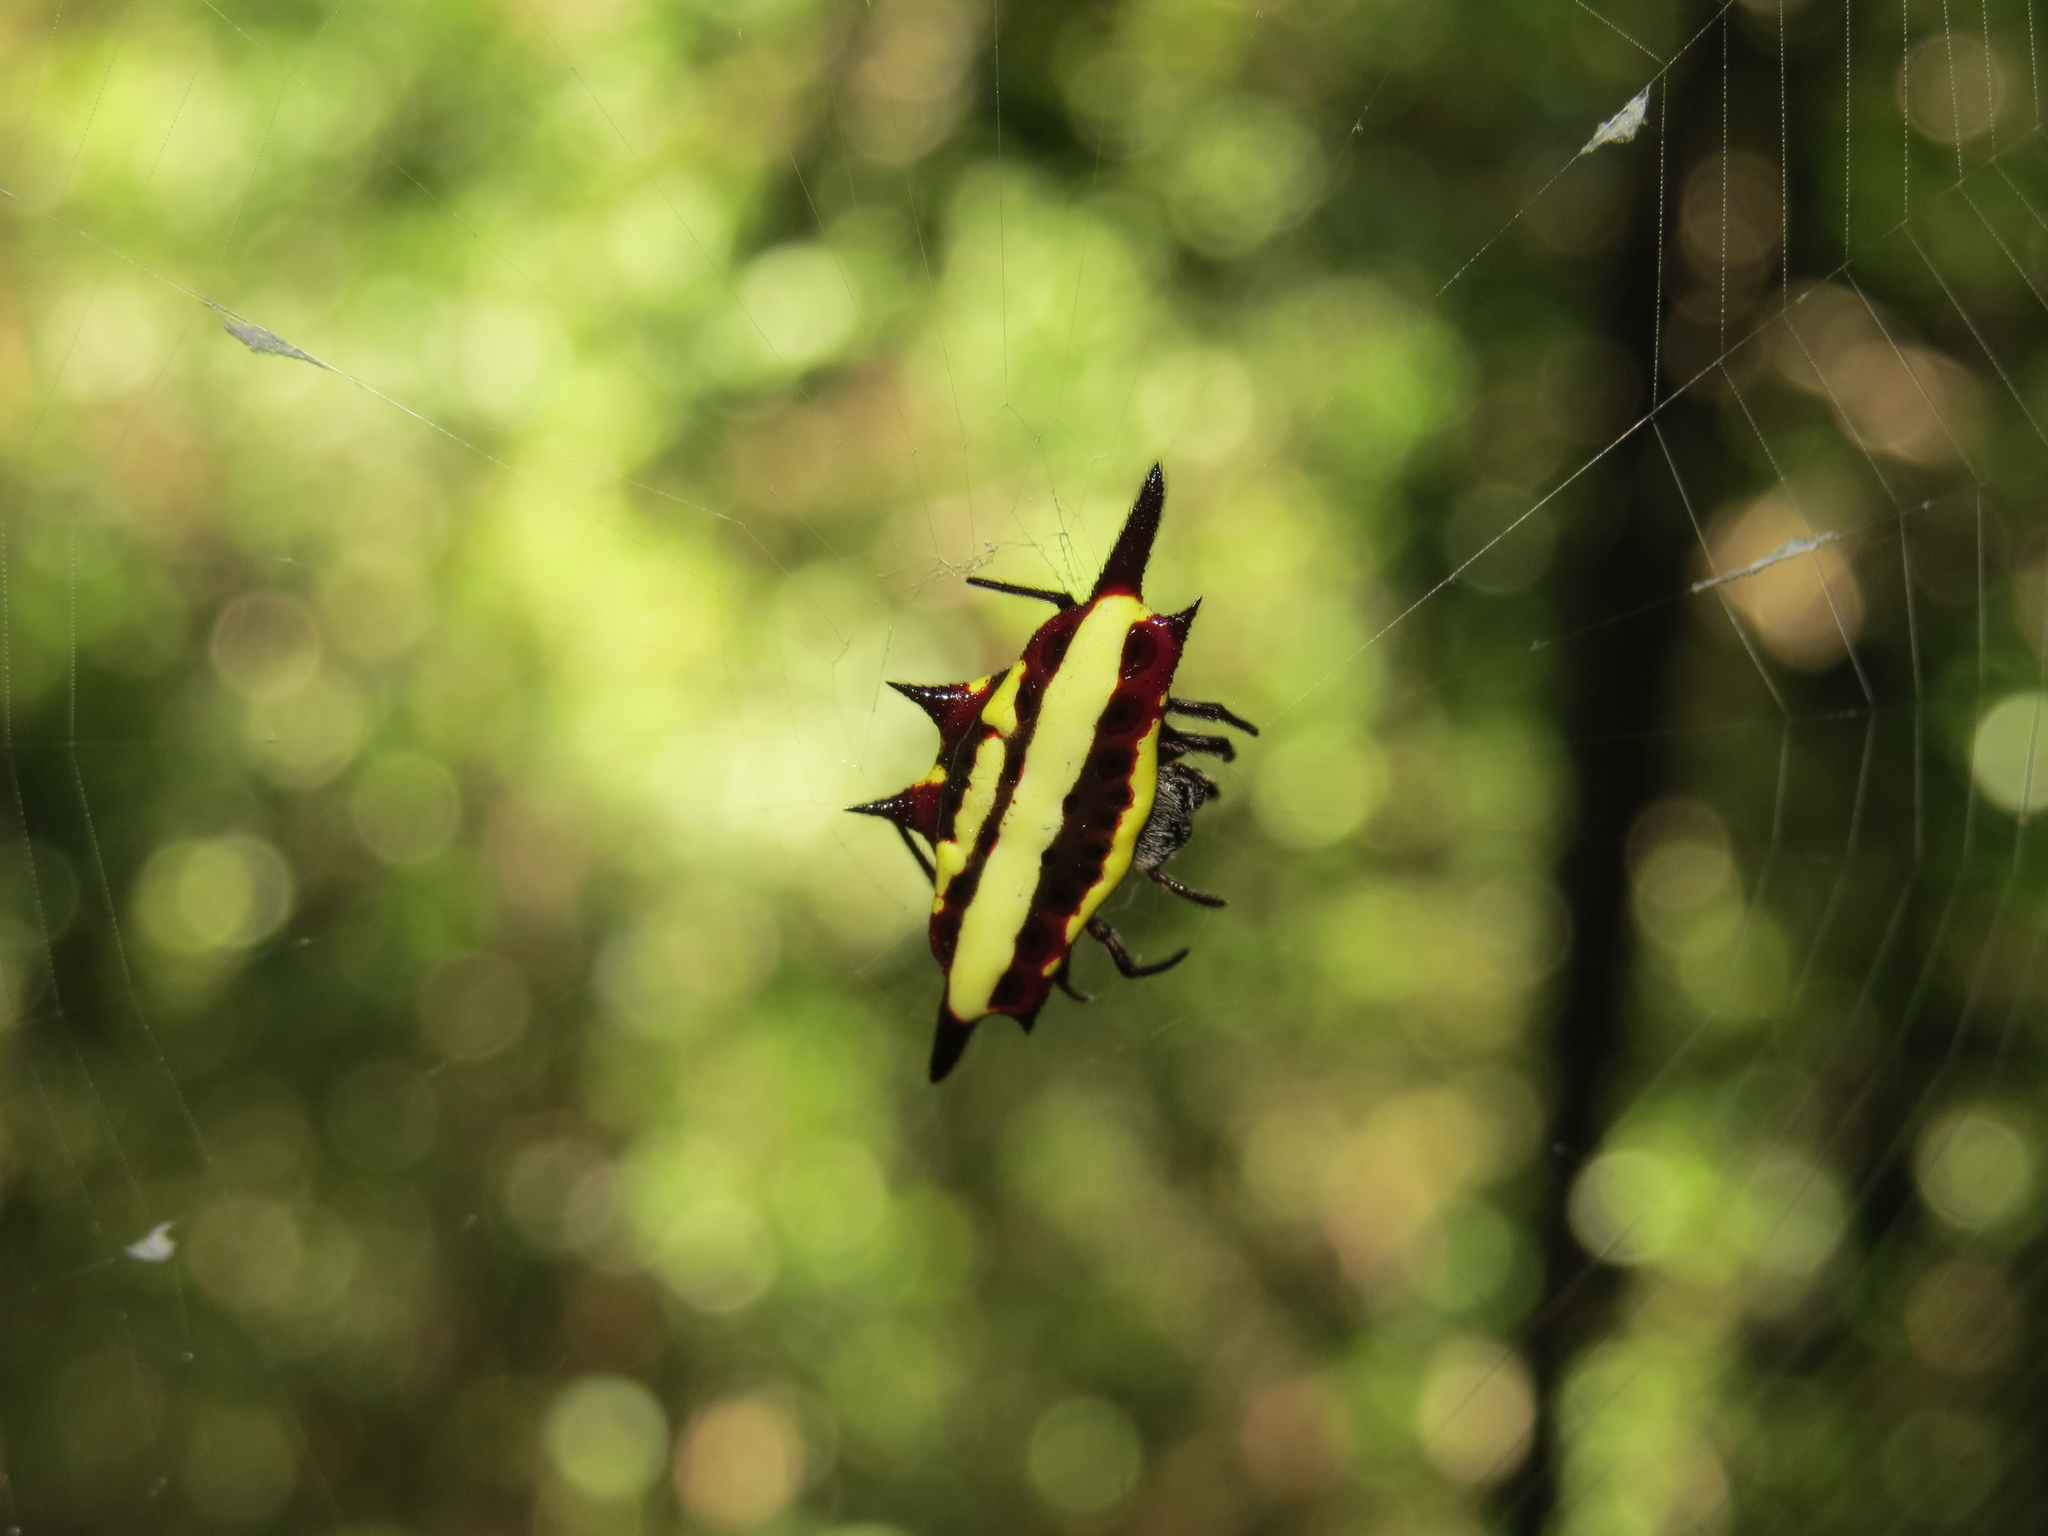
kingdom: Animalia
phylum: Arthropoda
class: Arachnida
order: Araneae
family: Araneidae
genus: Gasteracantha
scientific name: Gasteracantha fornicata
